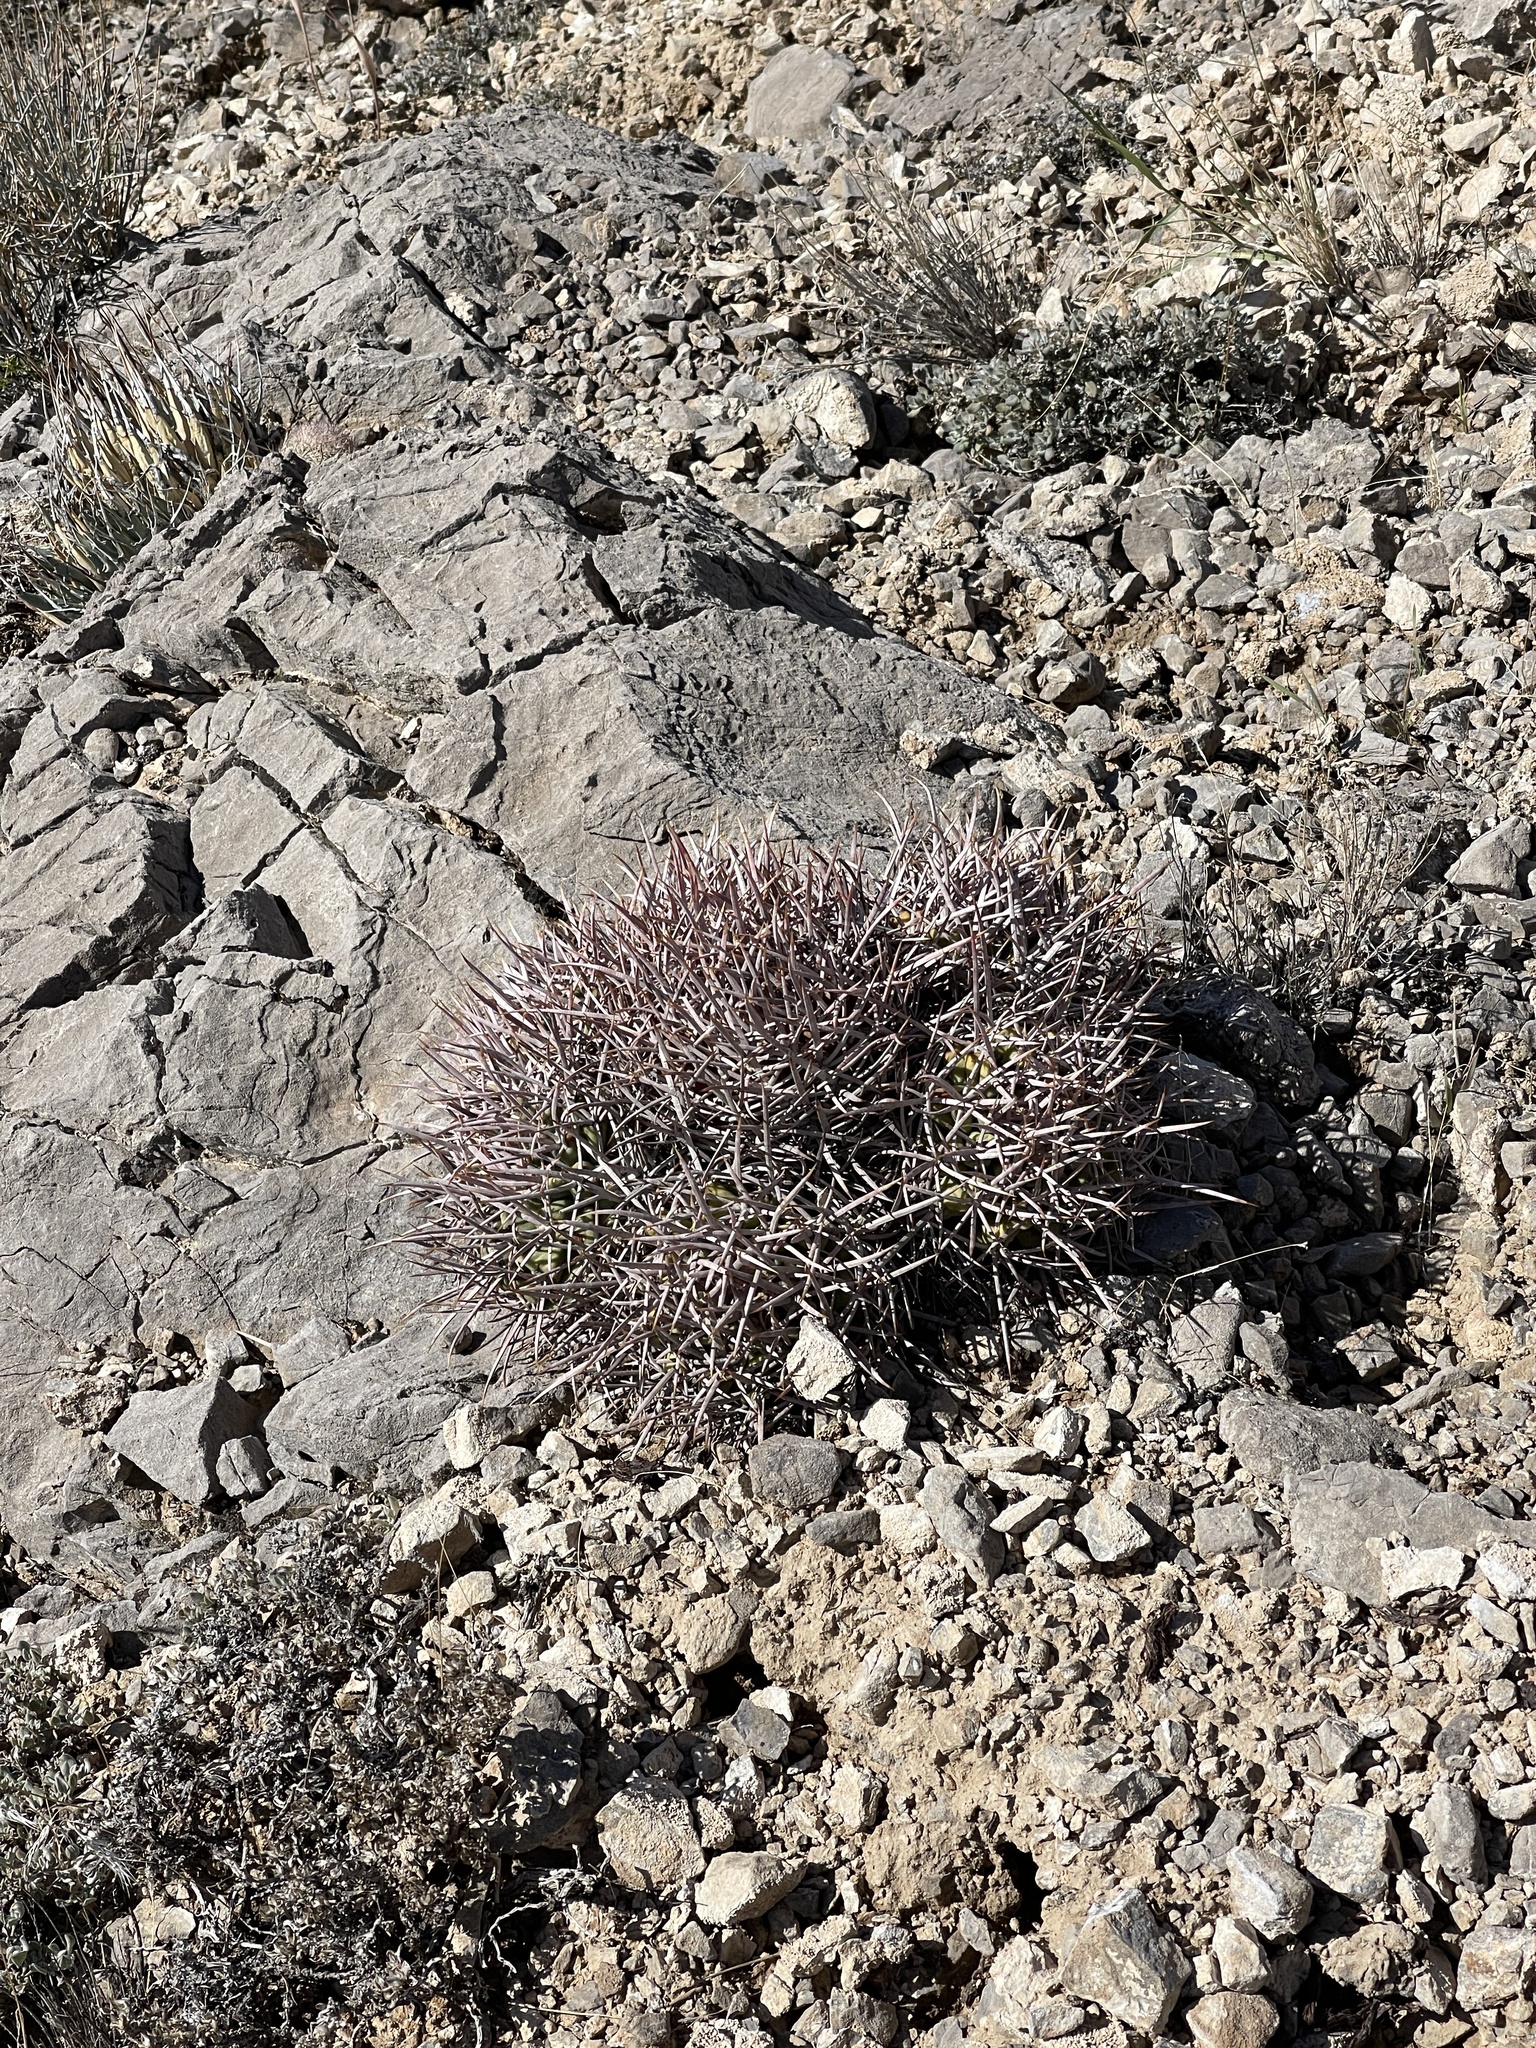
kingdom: Plantae
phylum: Tracheophyta
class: Magnoliopsida
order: Caryophyllales
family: Cactaceae
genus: Echinocactus
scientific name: Echinocactus polycephalus
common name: Cottontop cactus
